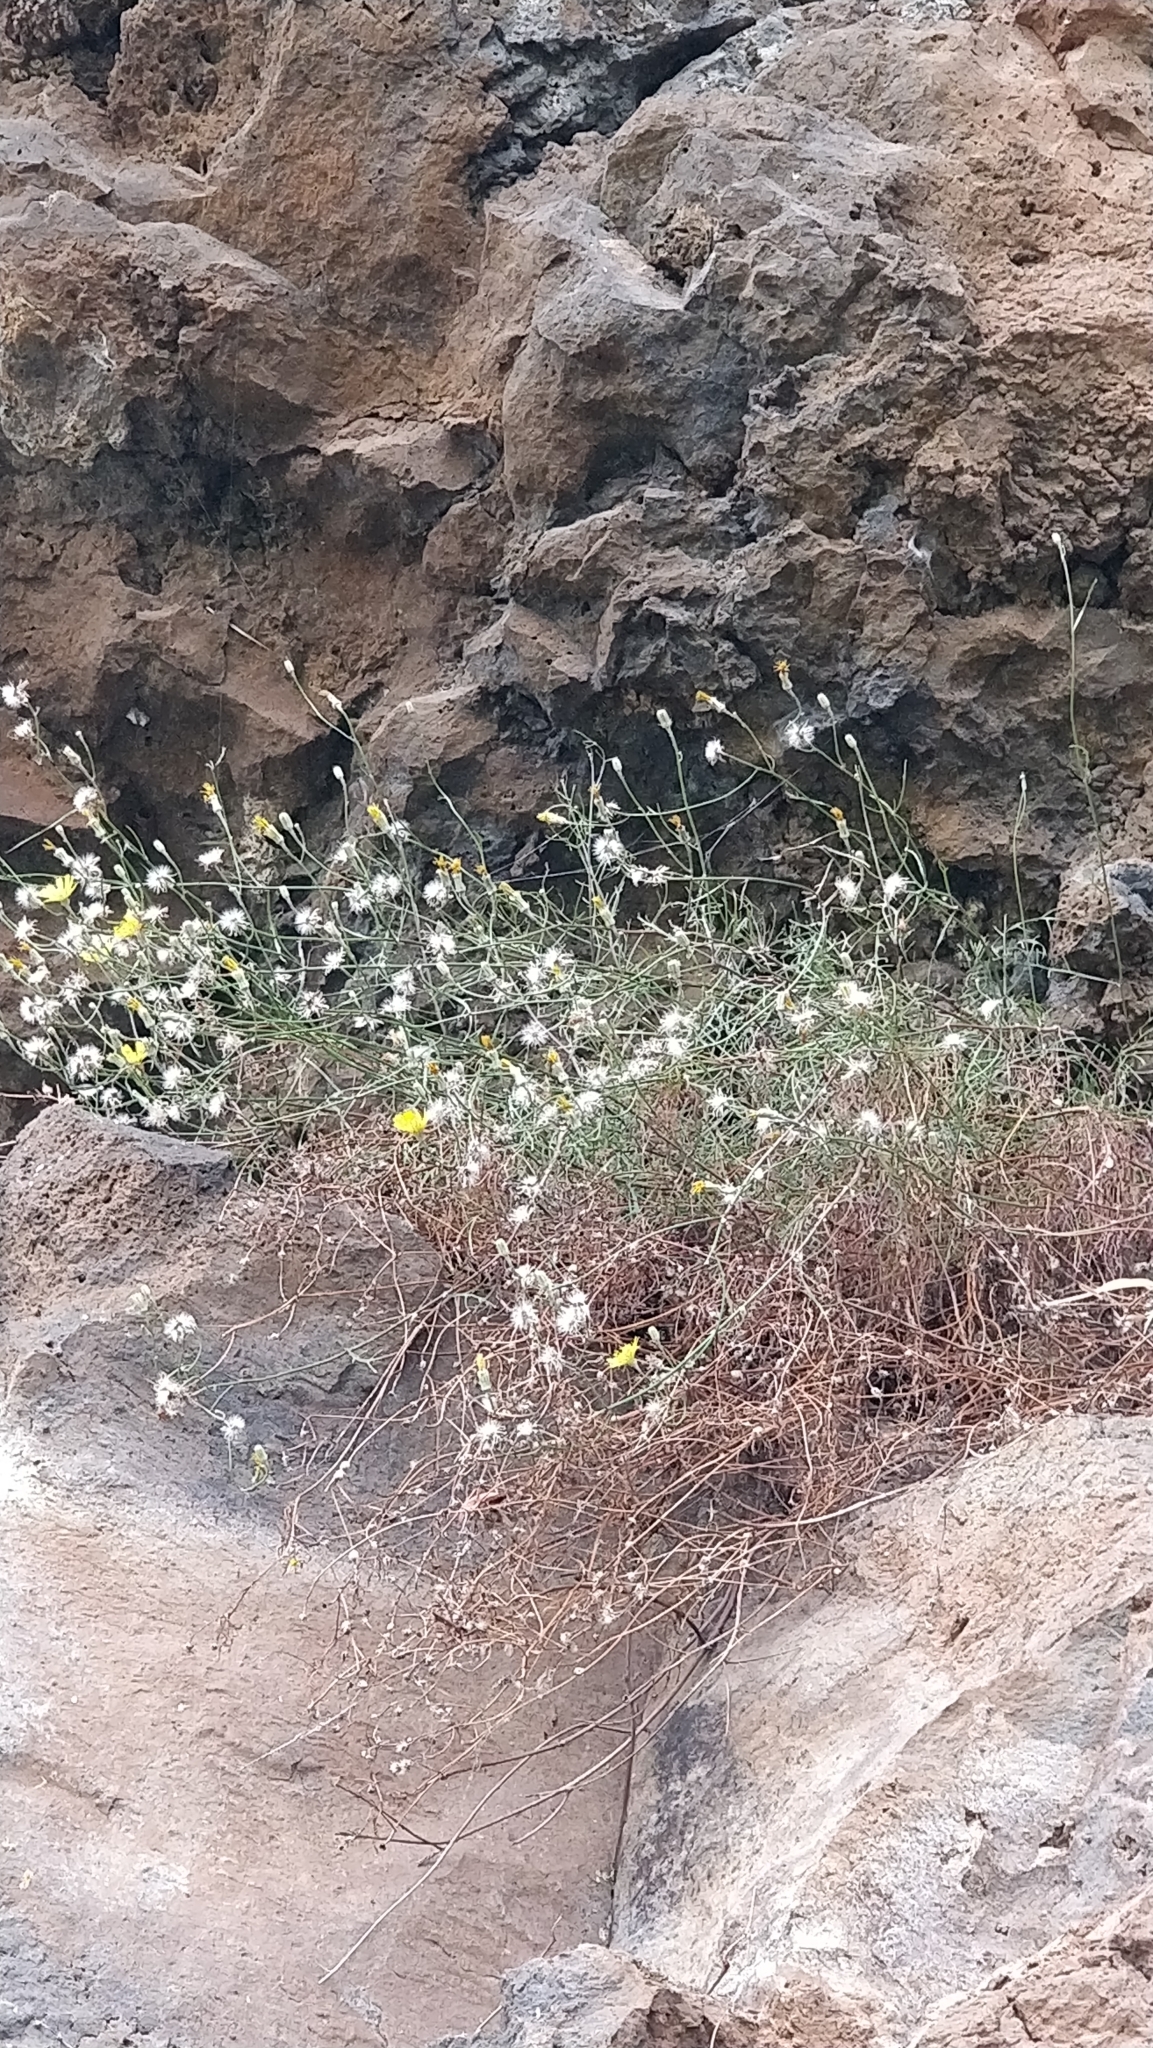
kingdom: Plantae
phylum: Tracheophyta
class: Magnoliopsida
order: Asterales
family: Asteraceae
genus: Tolpis
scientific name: Tolpis succulenta
